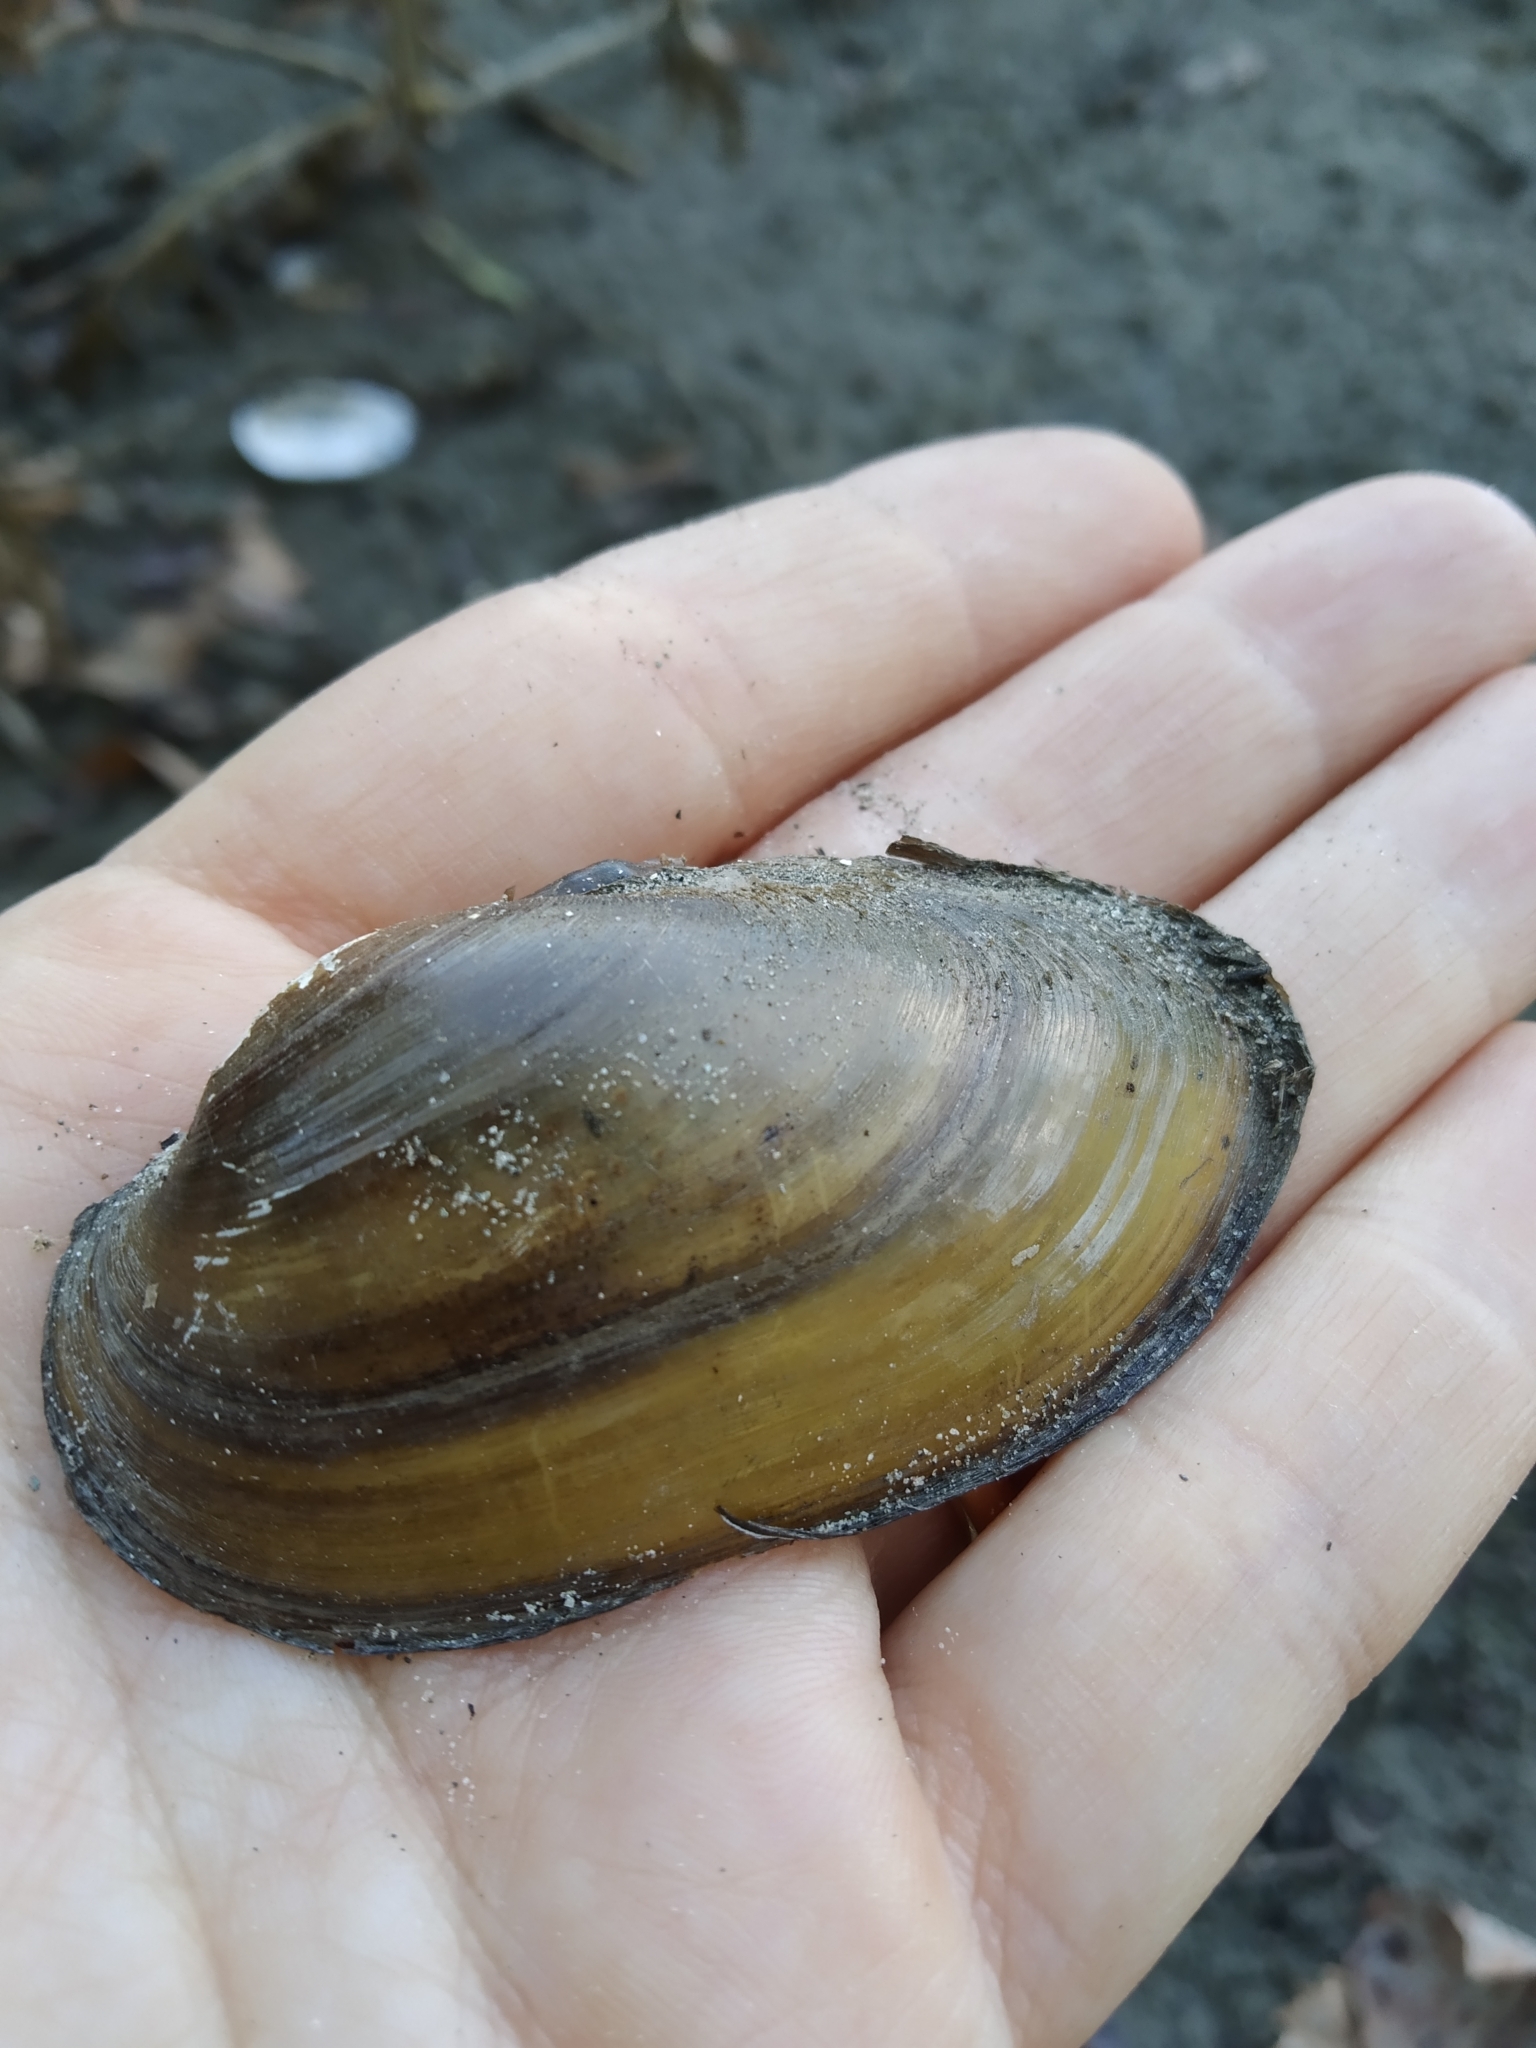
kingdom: Animalia
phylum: Mollusca
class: Bivalvia
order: Unionida
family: Unionidae
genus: Unio
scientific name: Unio elongatulus
